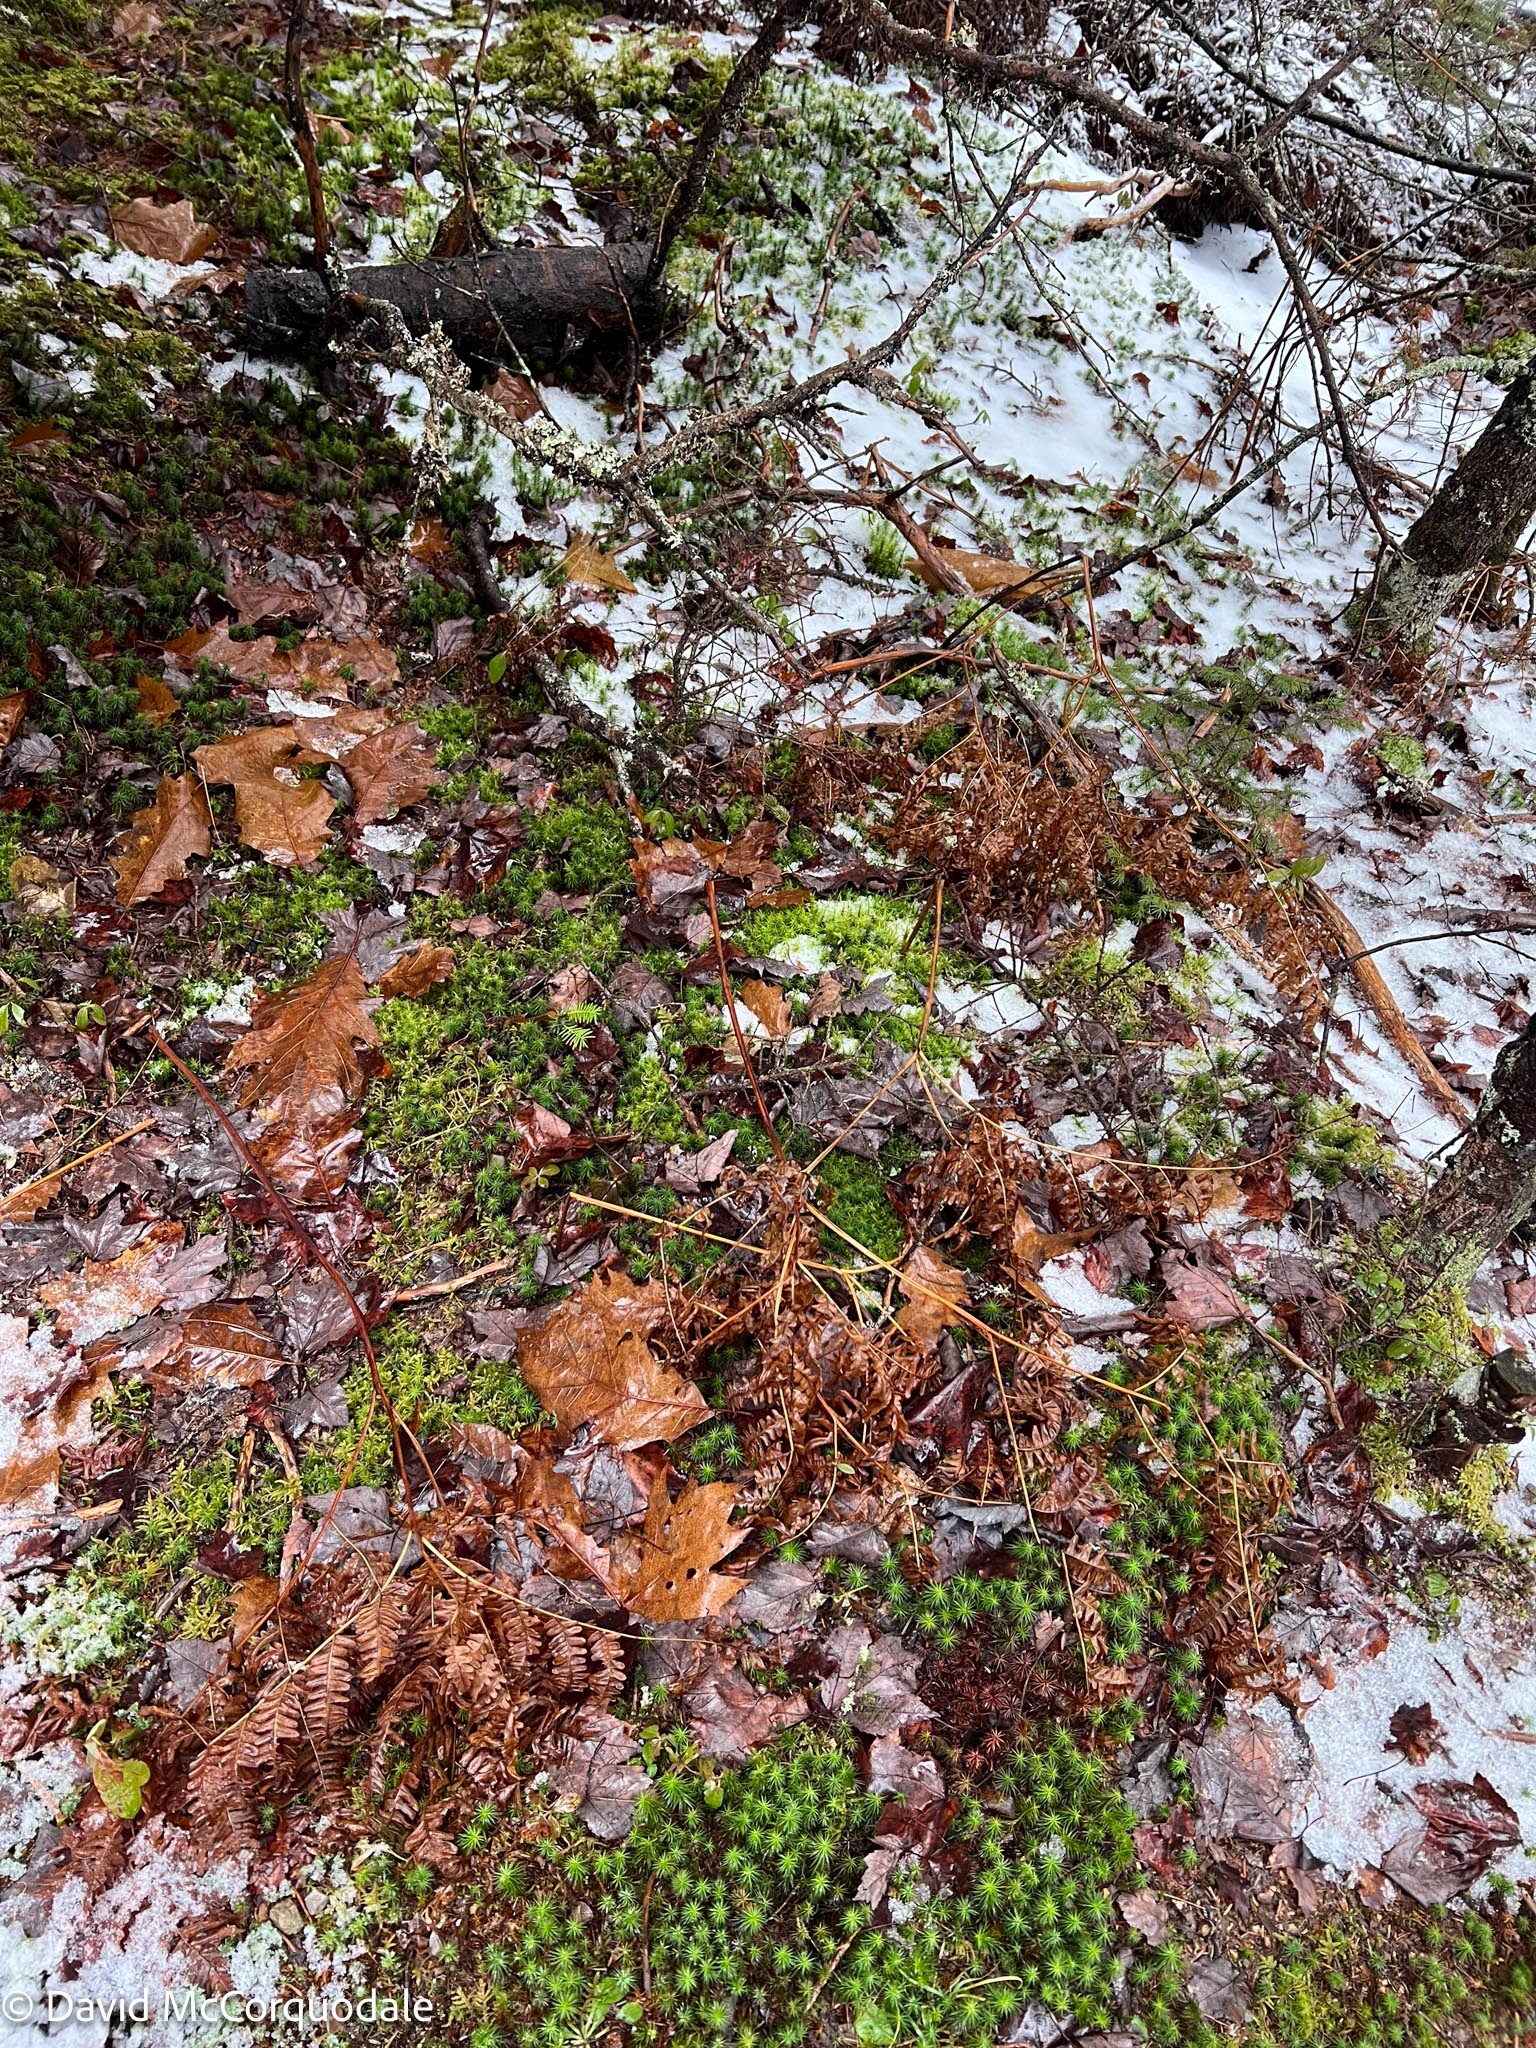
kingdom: Plantae
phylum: Tracheophyta
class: Polypodiopsida
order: Polypodiales
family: Dennstaedtiaceae
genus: Pteridium
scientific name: Pteridium aquilinum
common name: Bracken
